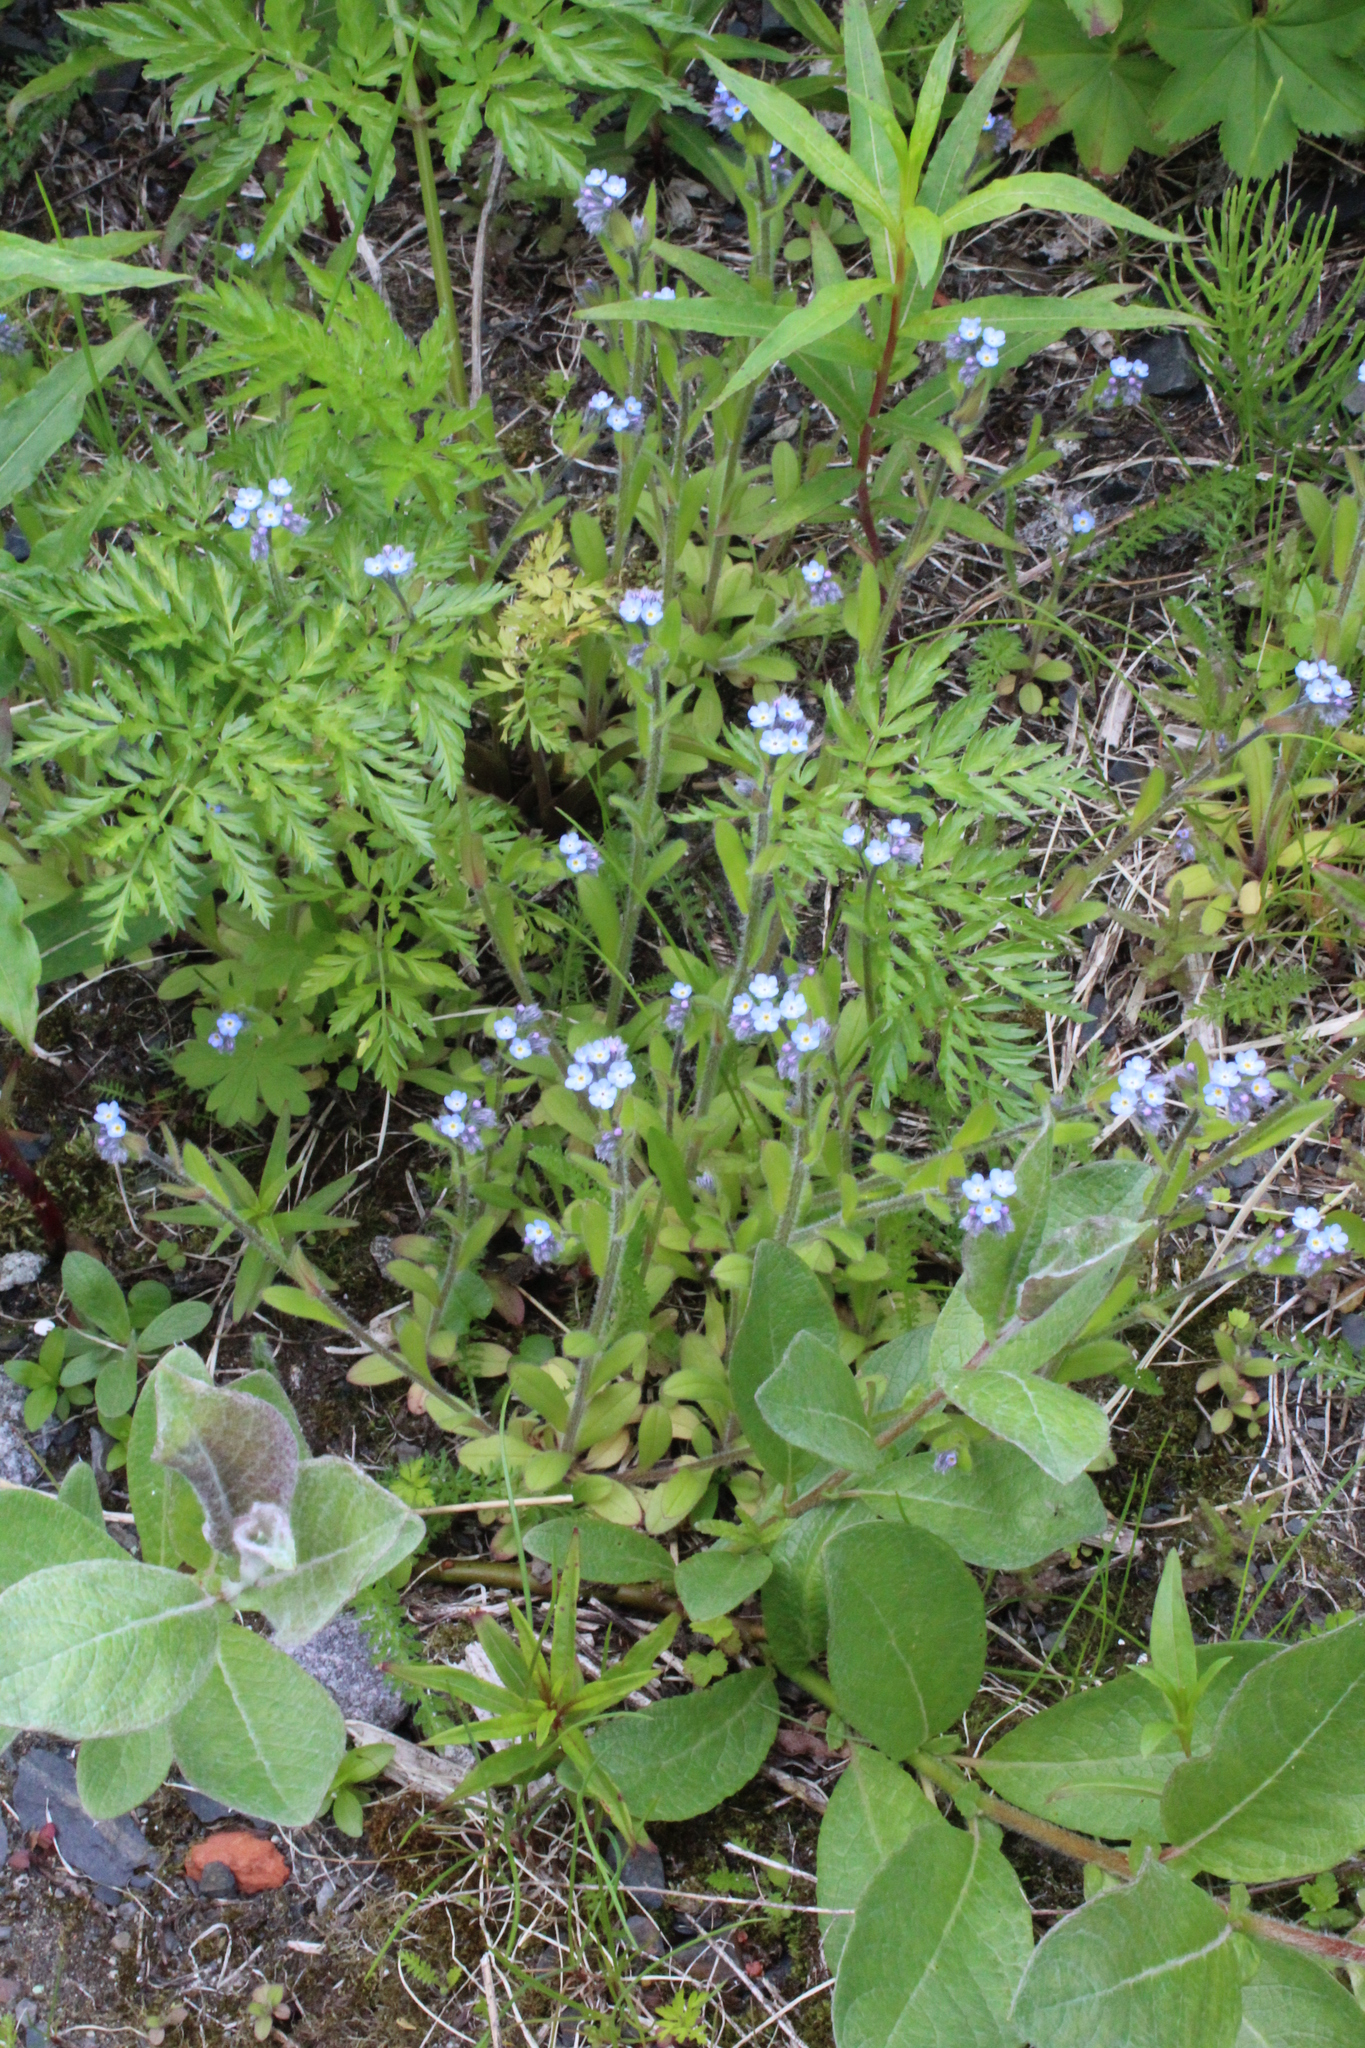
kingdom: Plantae
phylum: Tracheophyta
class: Magnoliopsida
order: Boraginales
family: Boraginaceae
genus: Myosotis
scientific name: Myosotis arvensis
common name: Field forget-me-not
